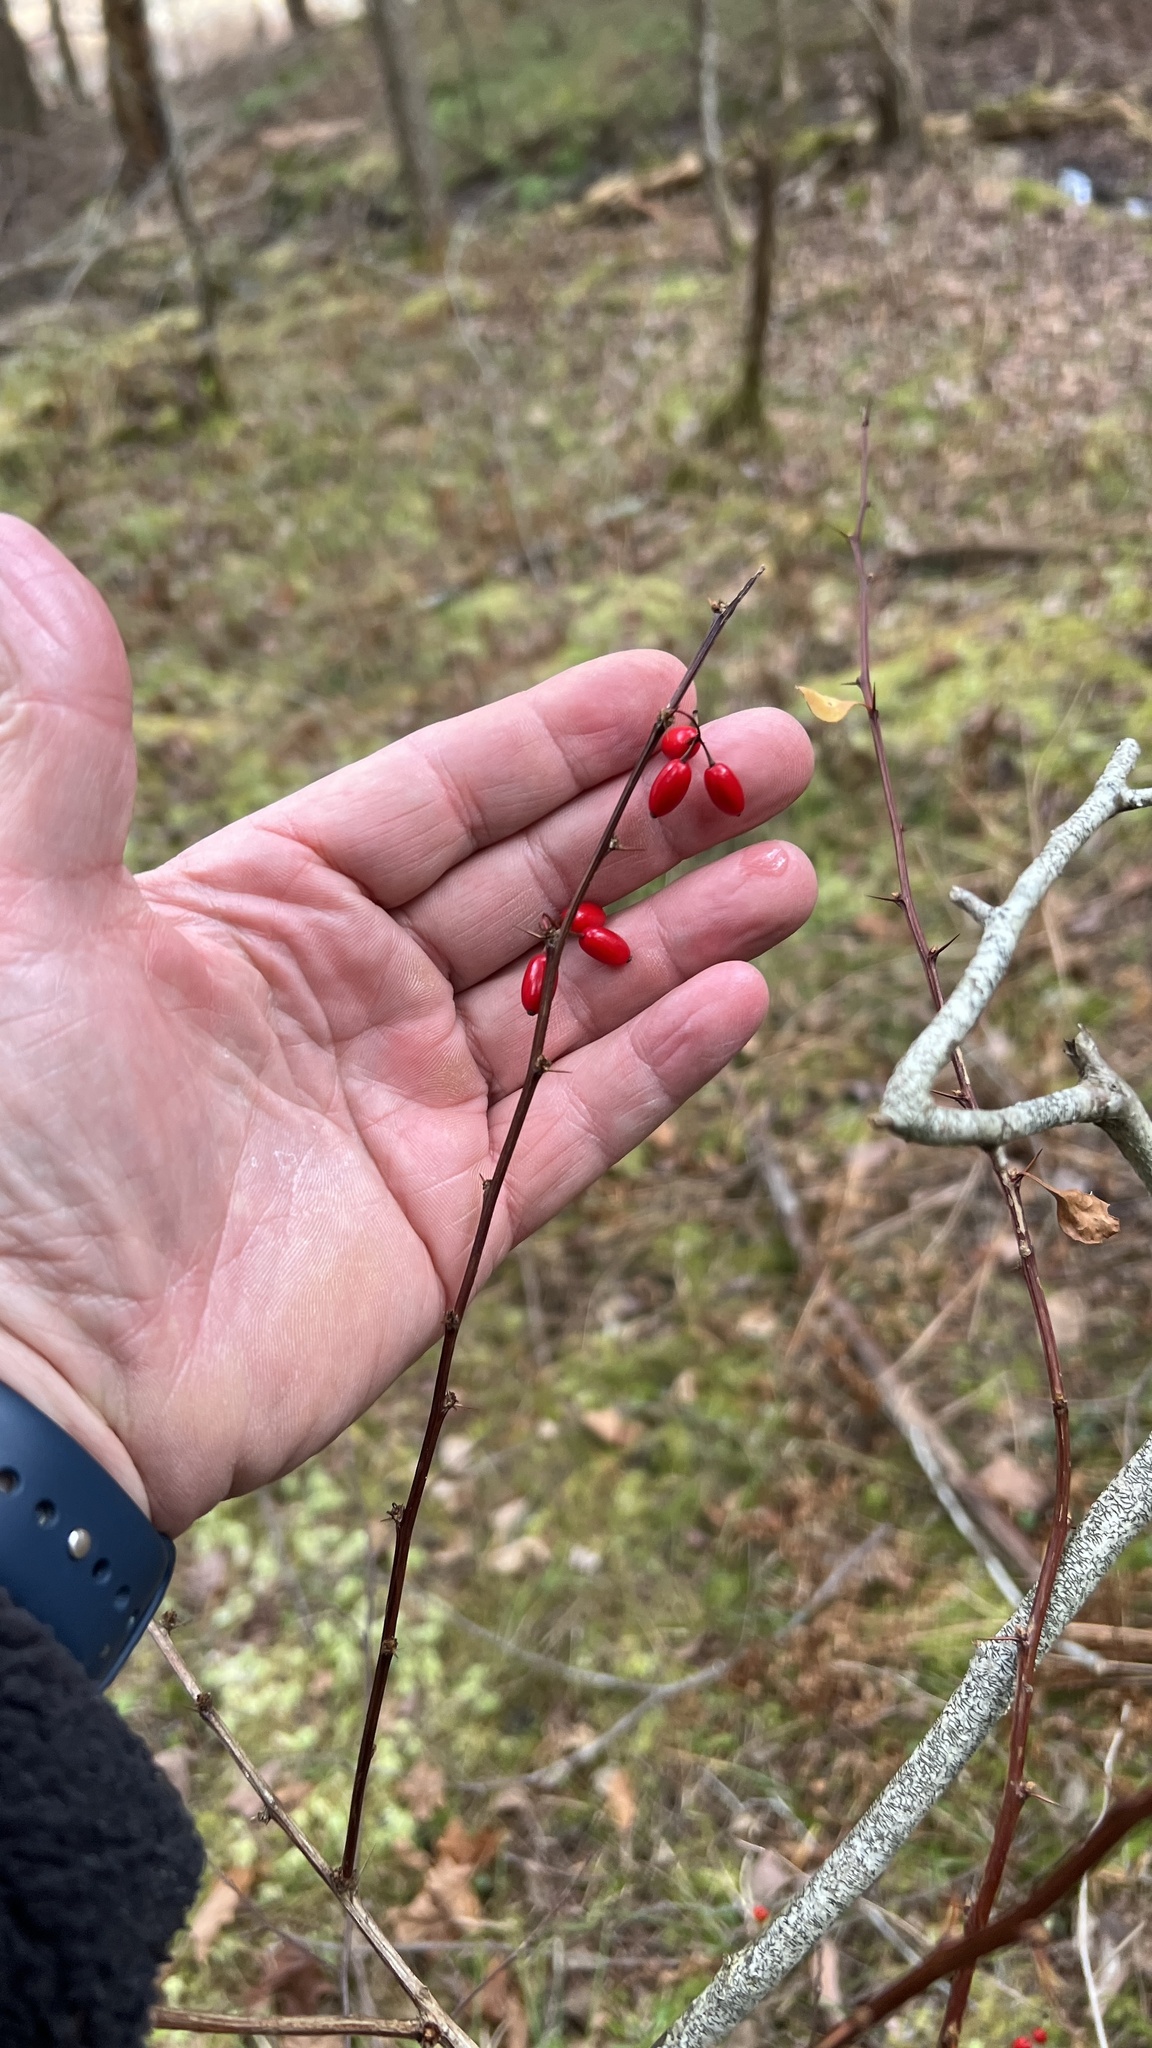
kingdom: Plantae
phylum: Tracheophyta
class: Magnoliopsida
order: Ranunculales
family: Berberidaceae
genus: Berberis
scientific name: Berberis thunbergii
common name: Japanese barberry
